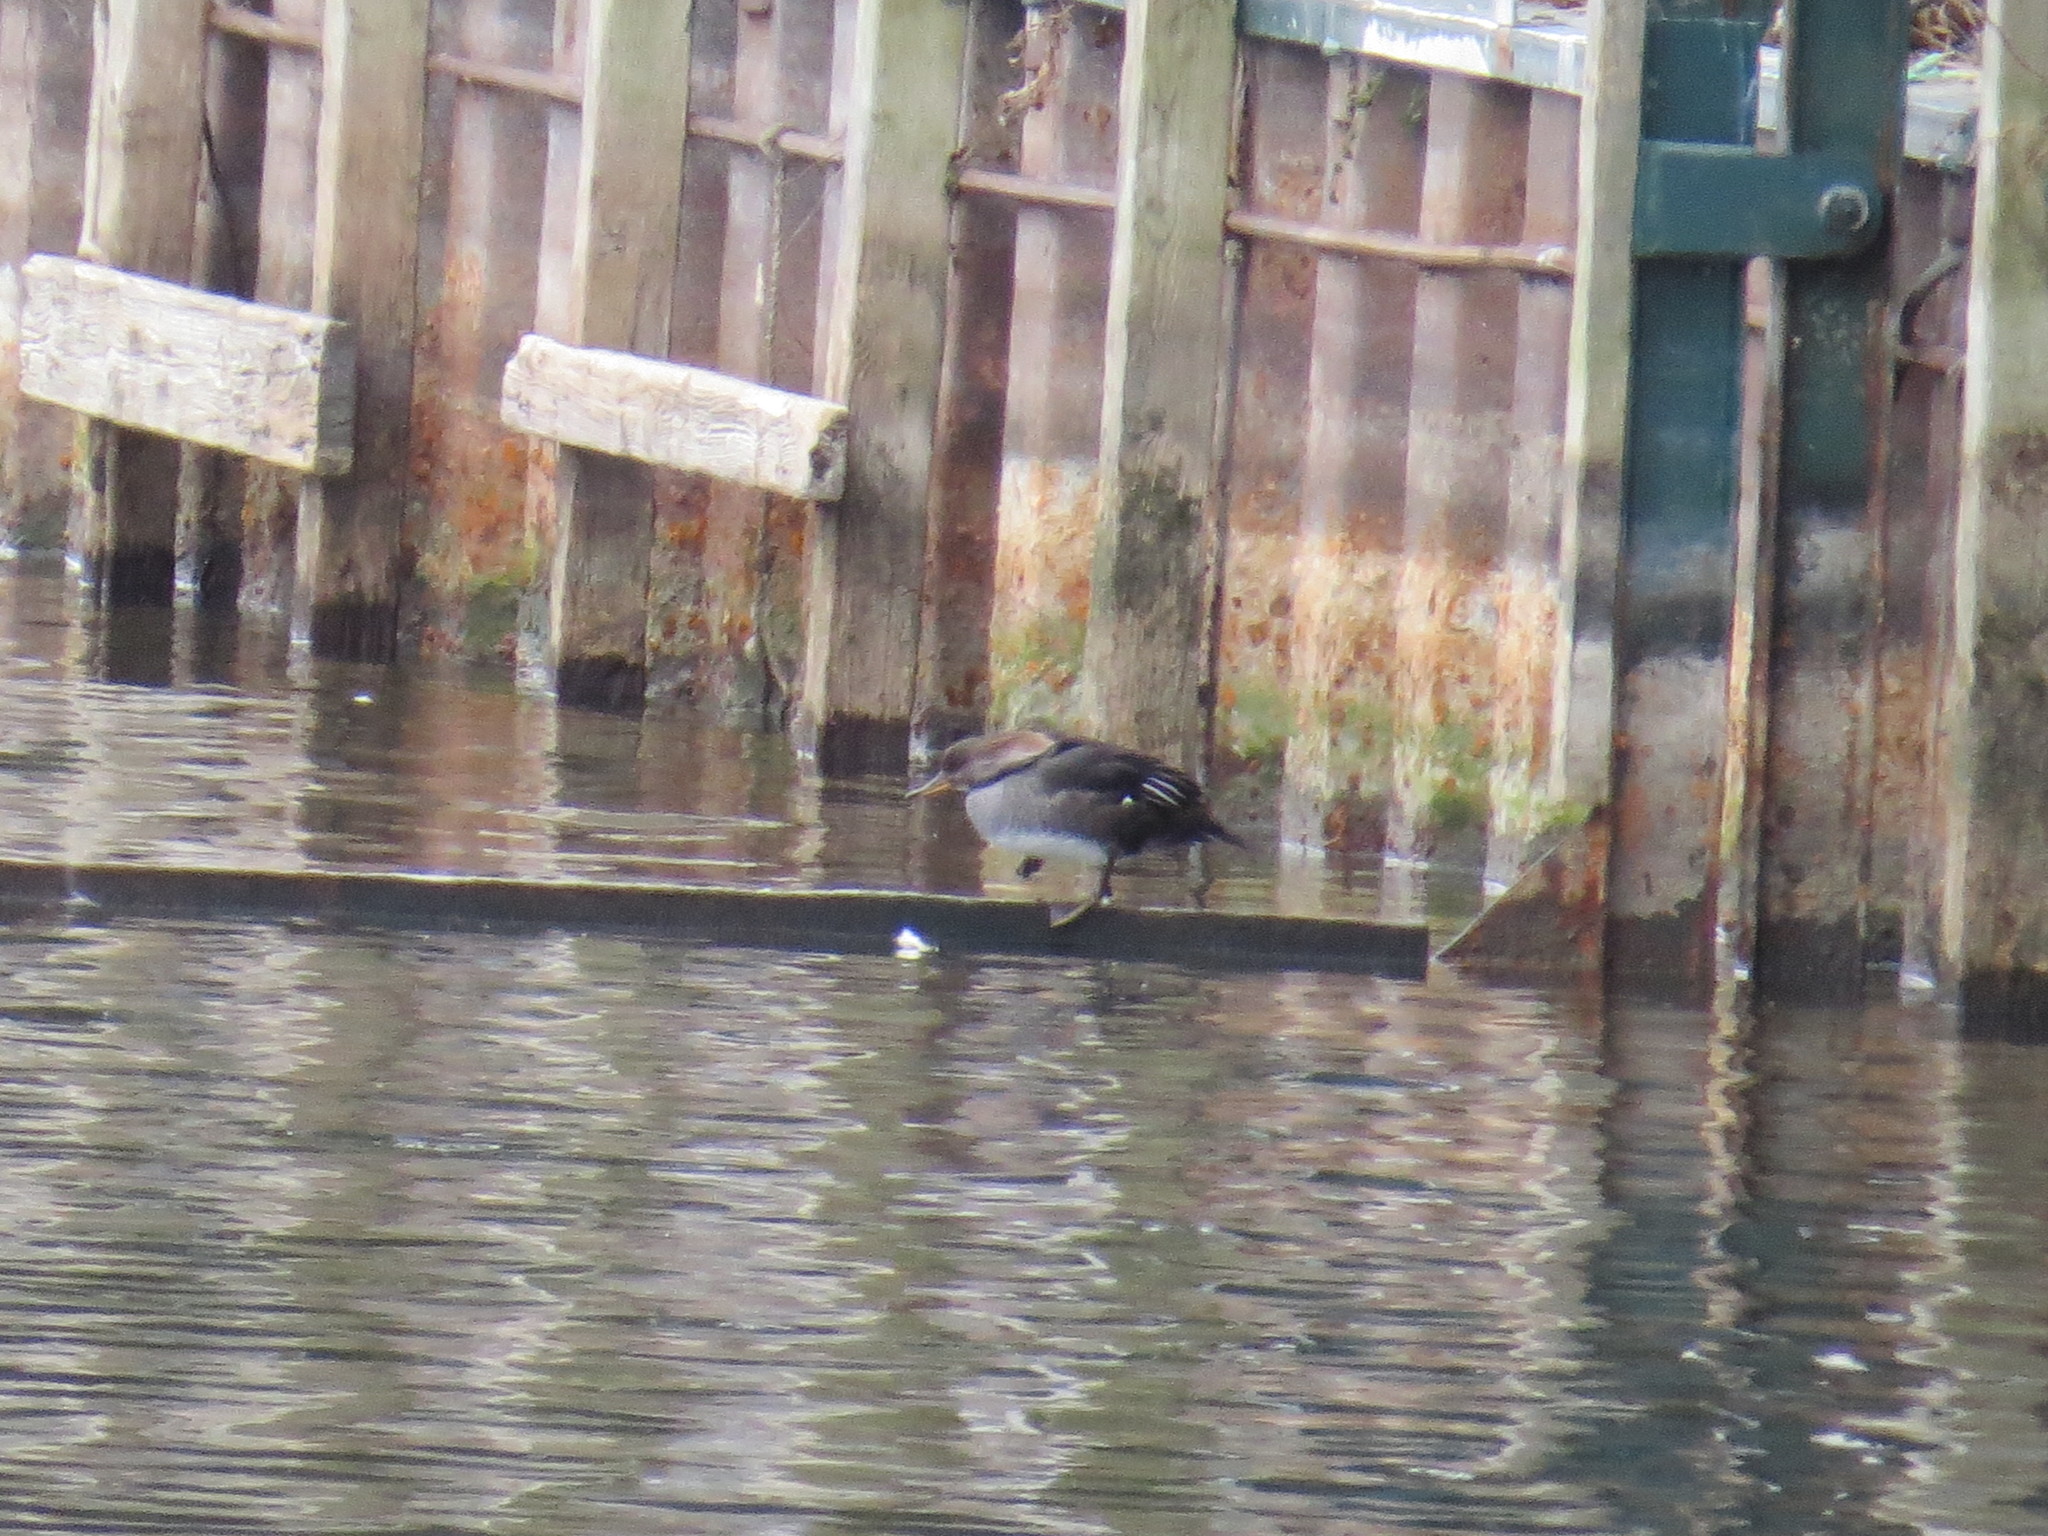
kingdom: Animalia
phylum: Chordata
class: Aves
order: Anseriformes
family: Anatidae
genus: Lophodytes
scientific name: Lophodytes cucullatus
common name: Hooded merganser
